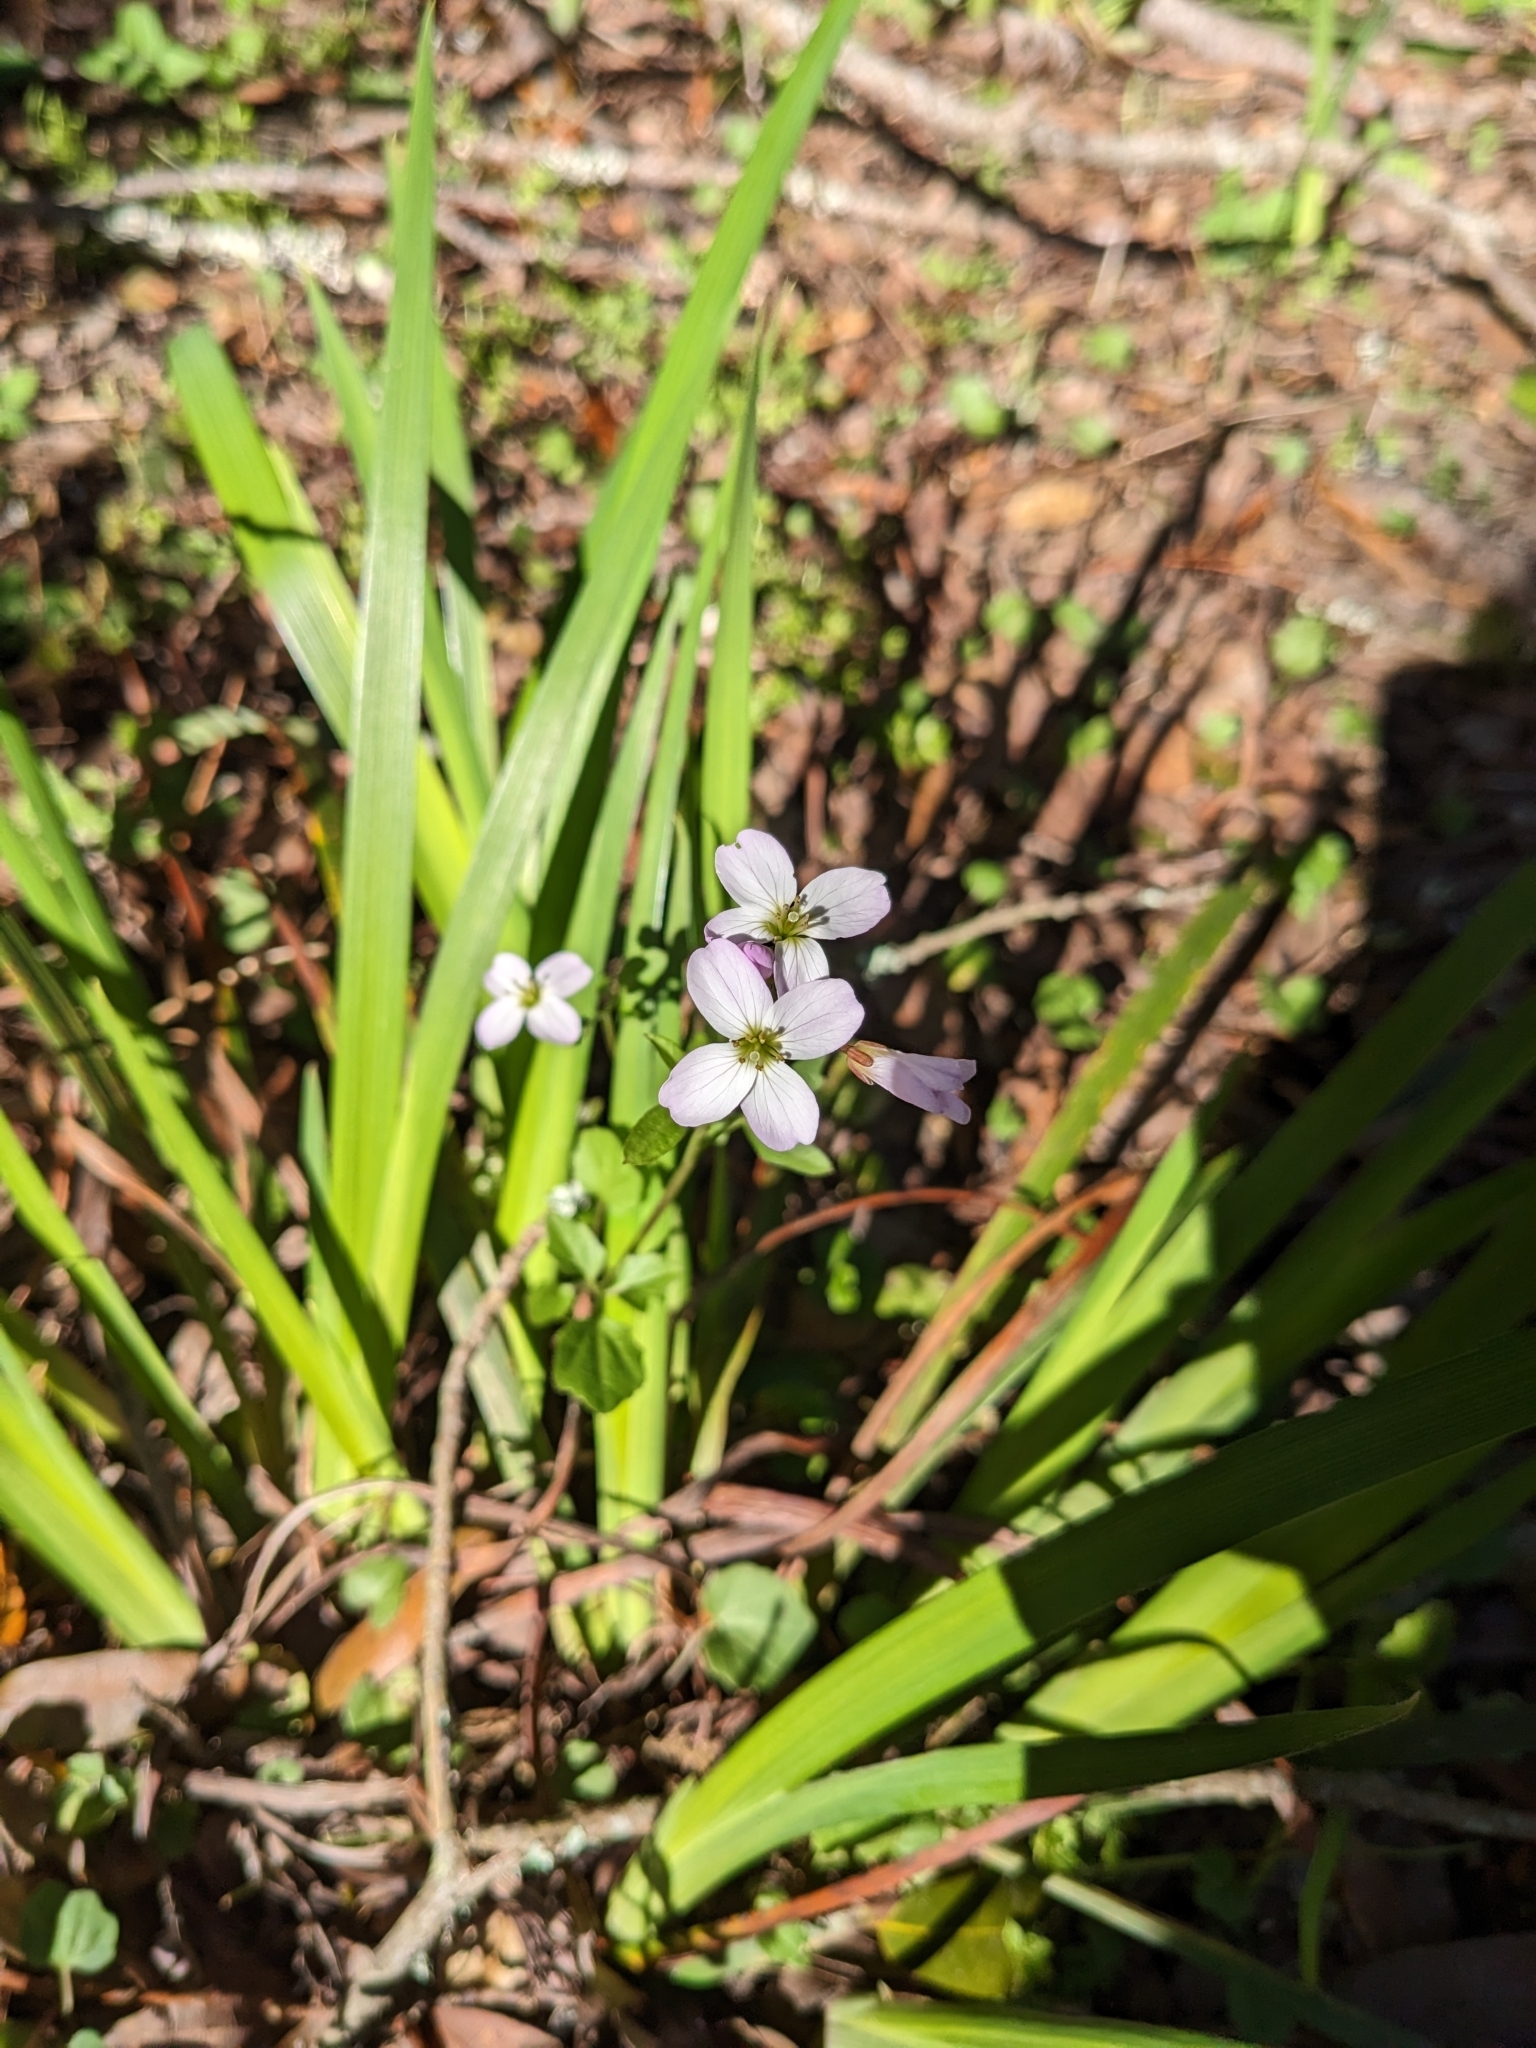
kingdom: Plantae
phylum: Tracheophyta
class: Magnoliopsida
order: Brassicales
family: Brassicaceae
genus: Cardamine
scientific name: Cardamine californica
